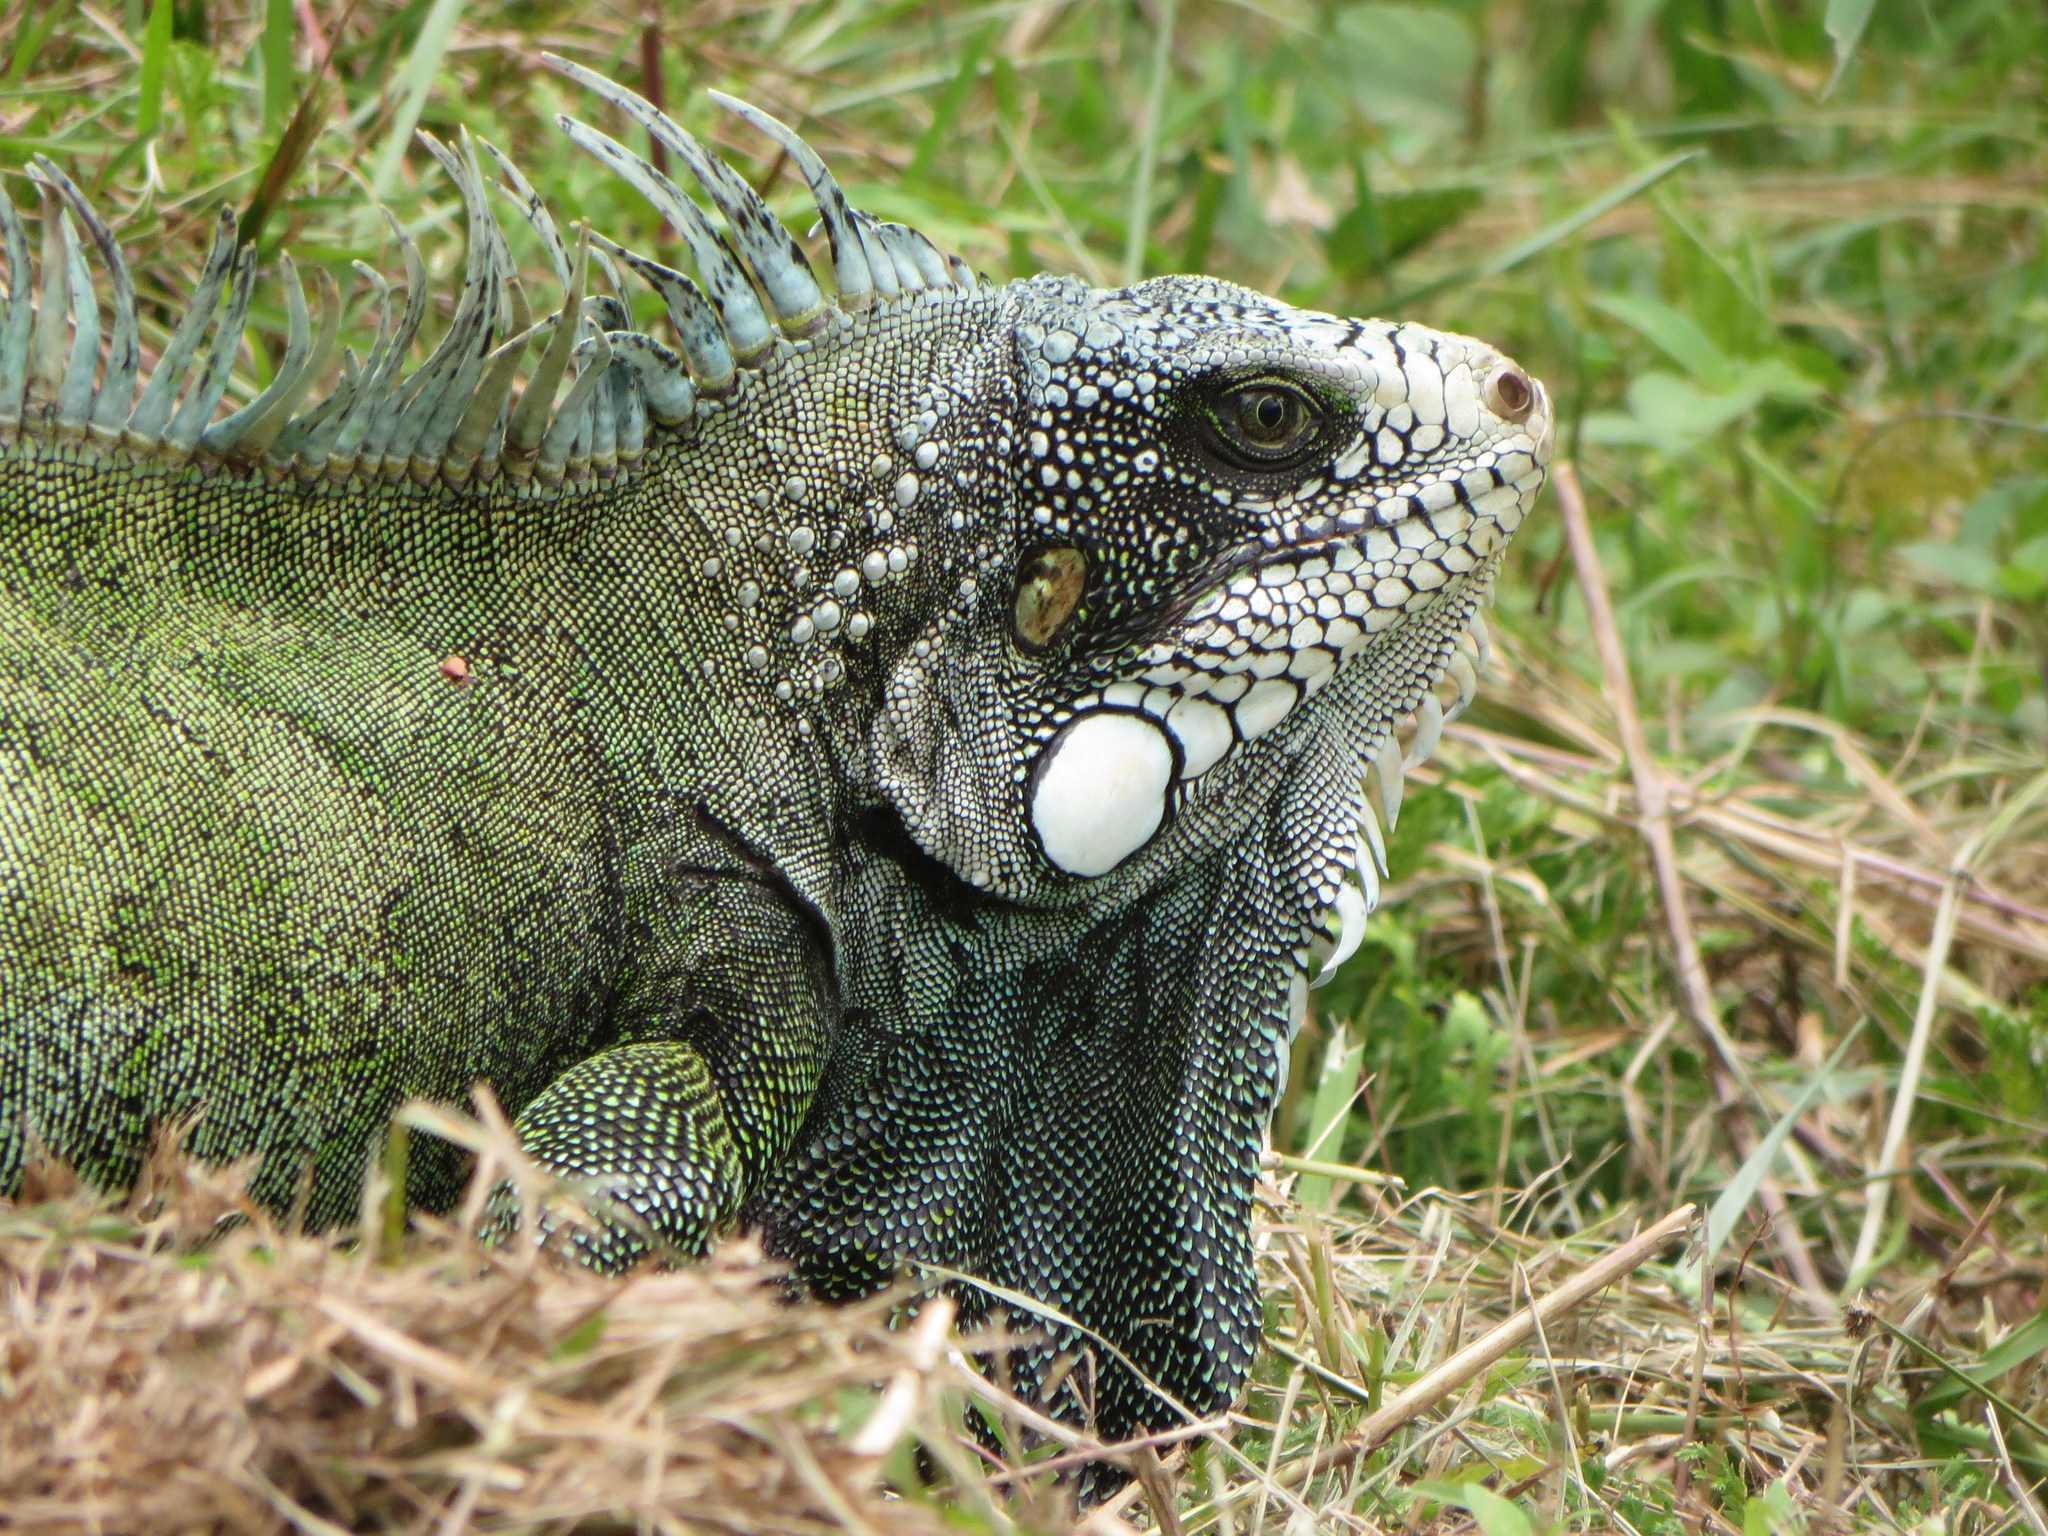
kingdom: Animalia
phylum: Chordata
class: Squamata
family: Iguanidae
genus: Iguana
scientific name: Iguana iguana
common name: Green iguana
